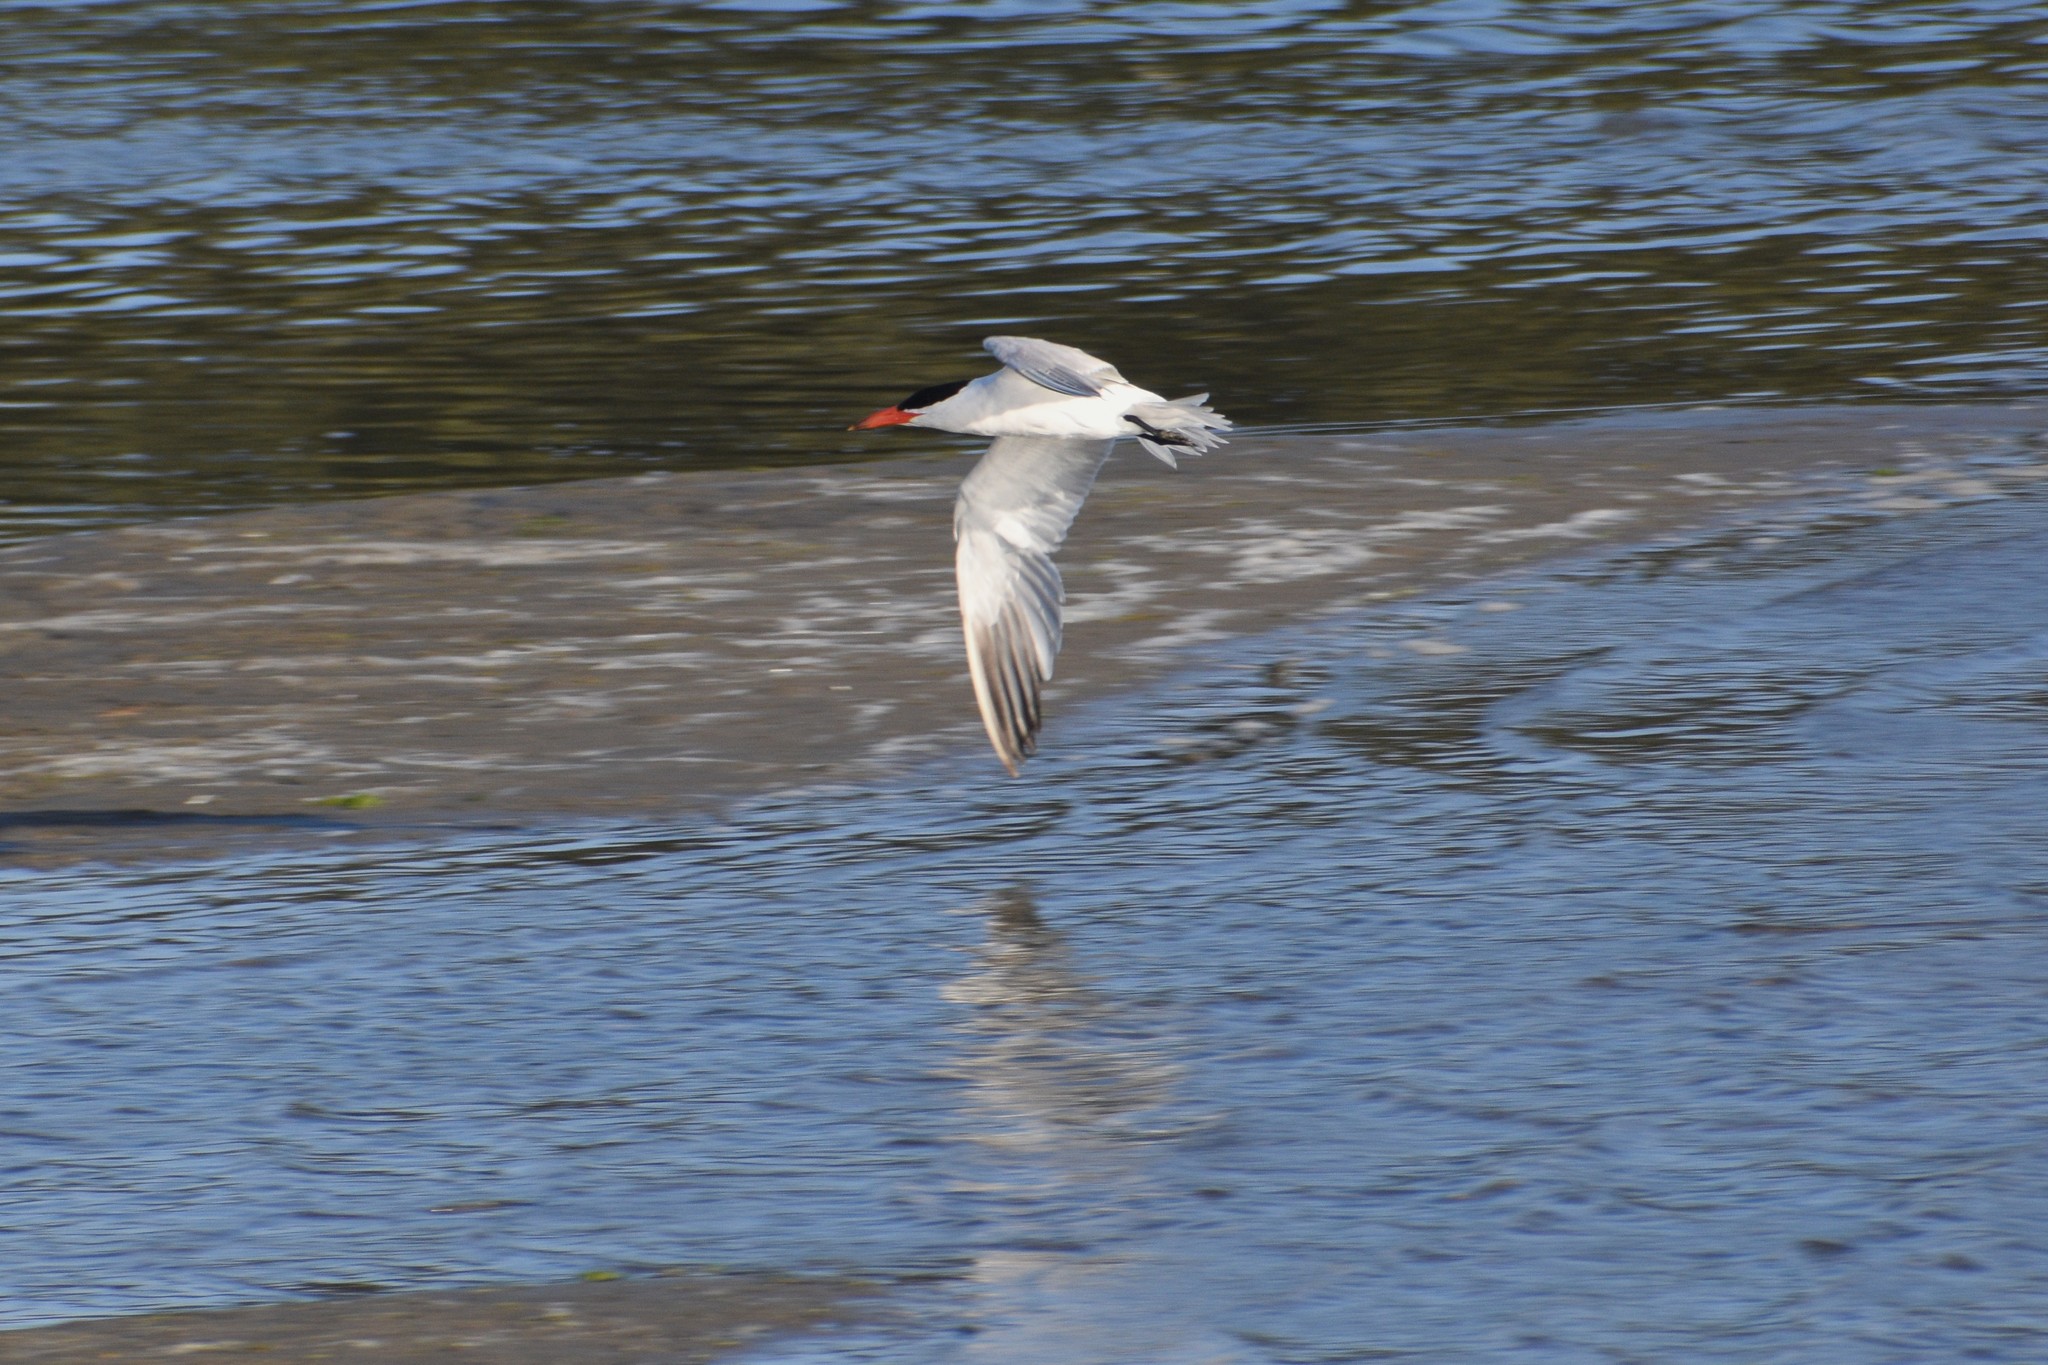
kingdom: Animalia
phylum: Chordata
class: Aves
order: Charadriiformes
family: Laridae
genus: Hydroprogne
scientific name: Hydroprogne caspia
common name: Caspian tern
